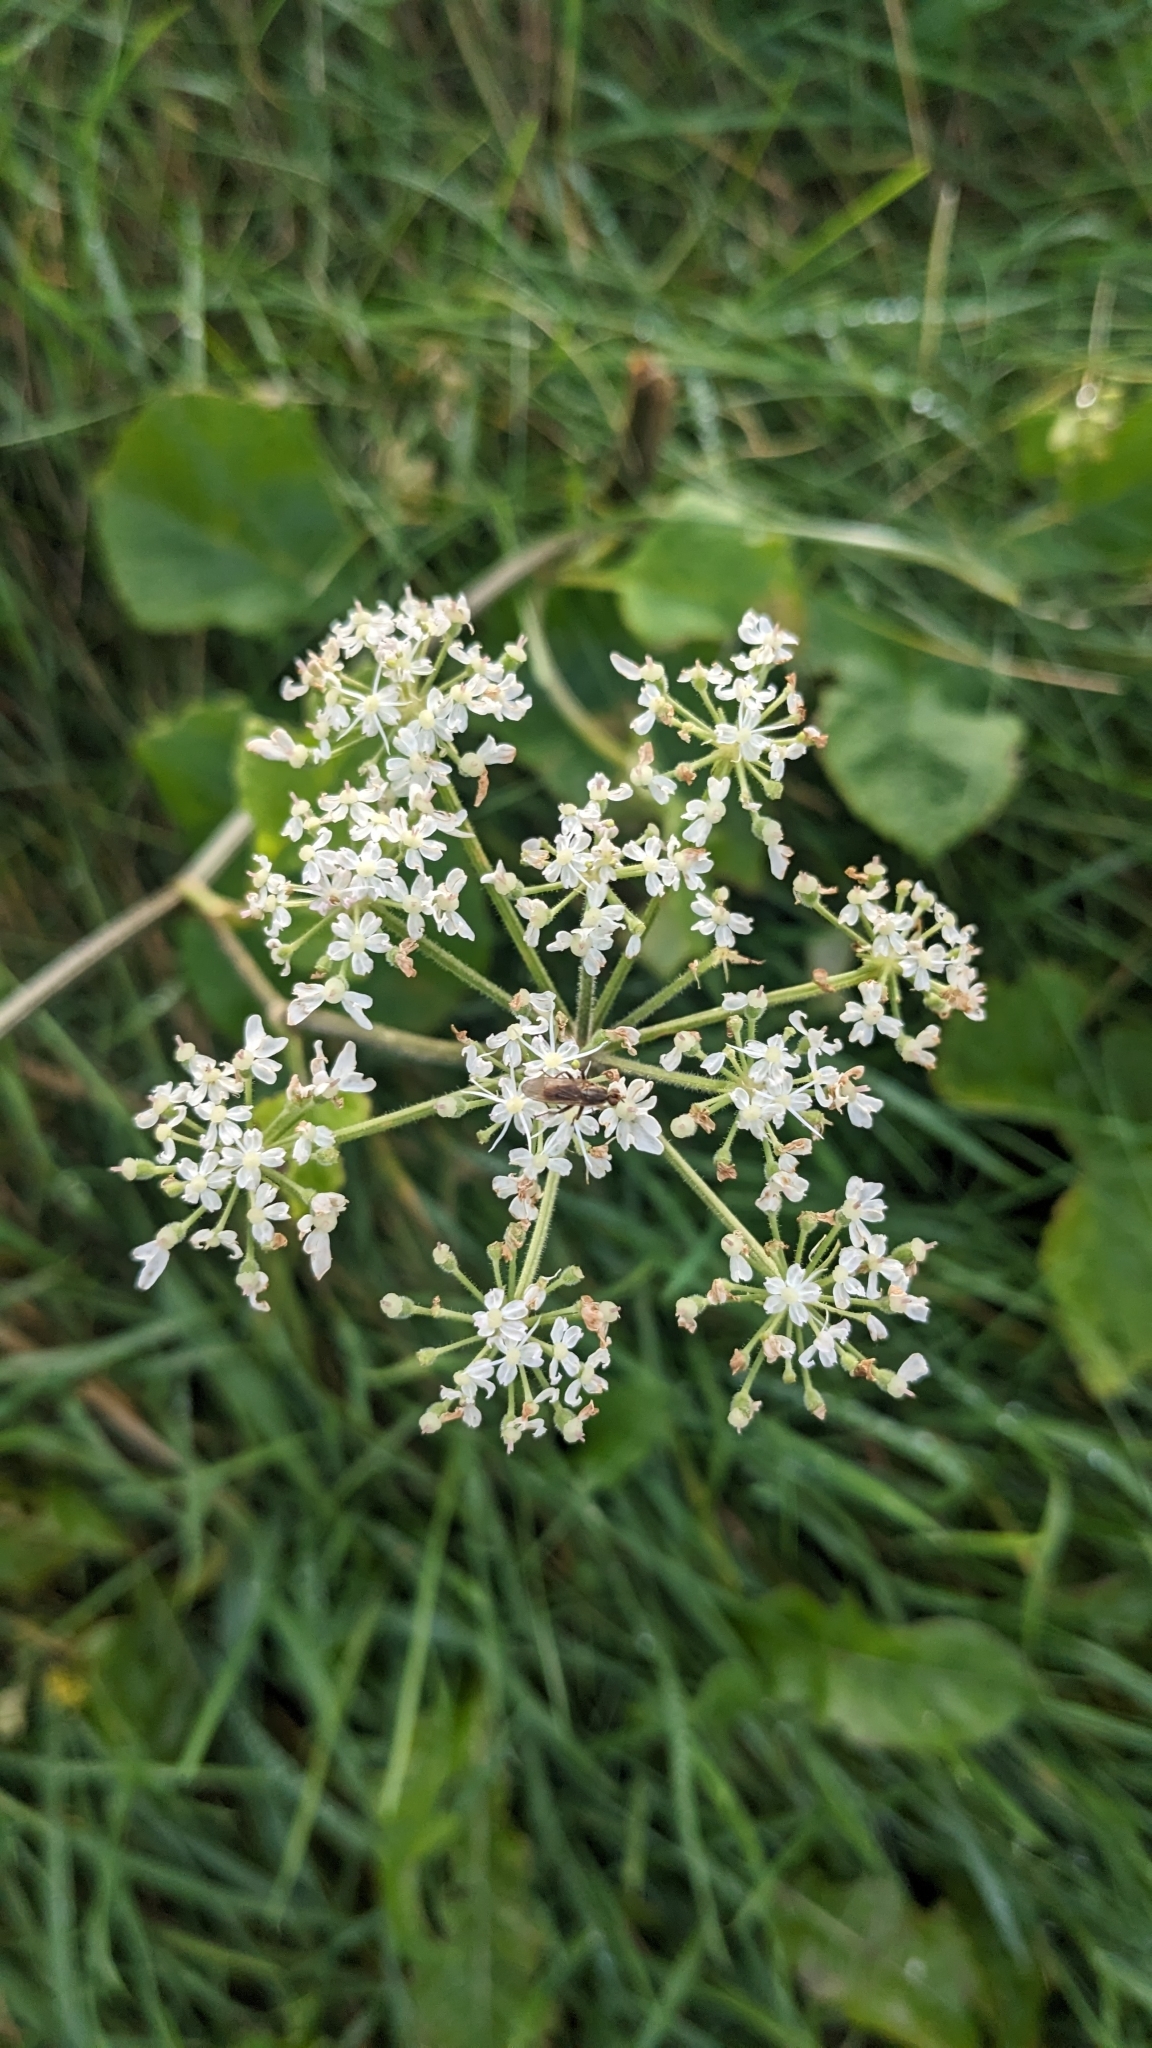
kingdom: Plantae
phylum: Tracheophyta
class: Magnoliopsida
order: Apiales
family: Apiaceae
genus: Heracleum
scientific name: Heracleum sphondylium
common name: Hogweed
